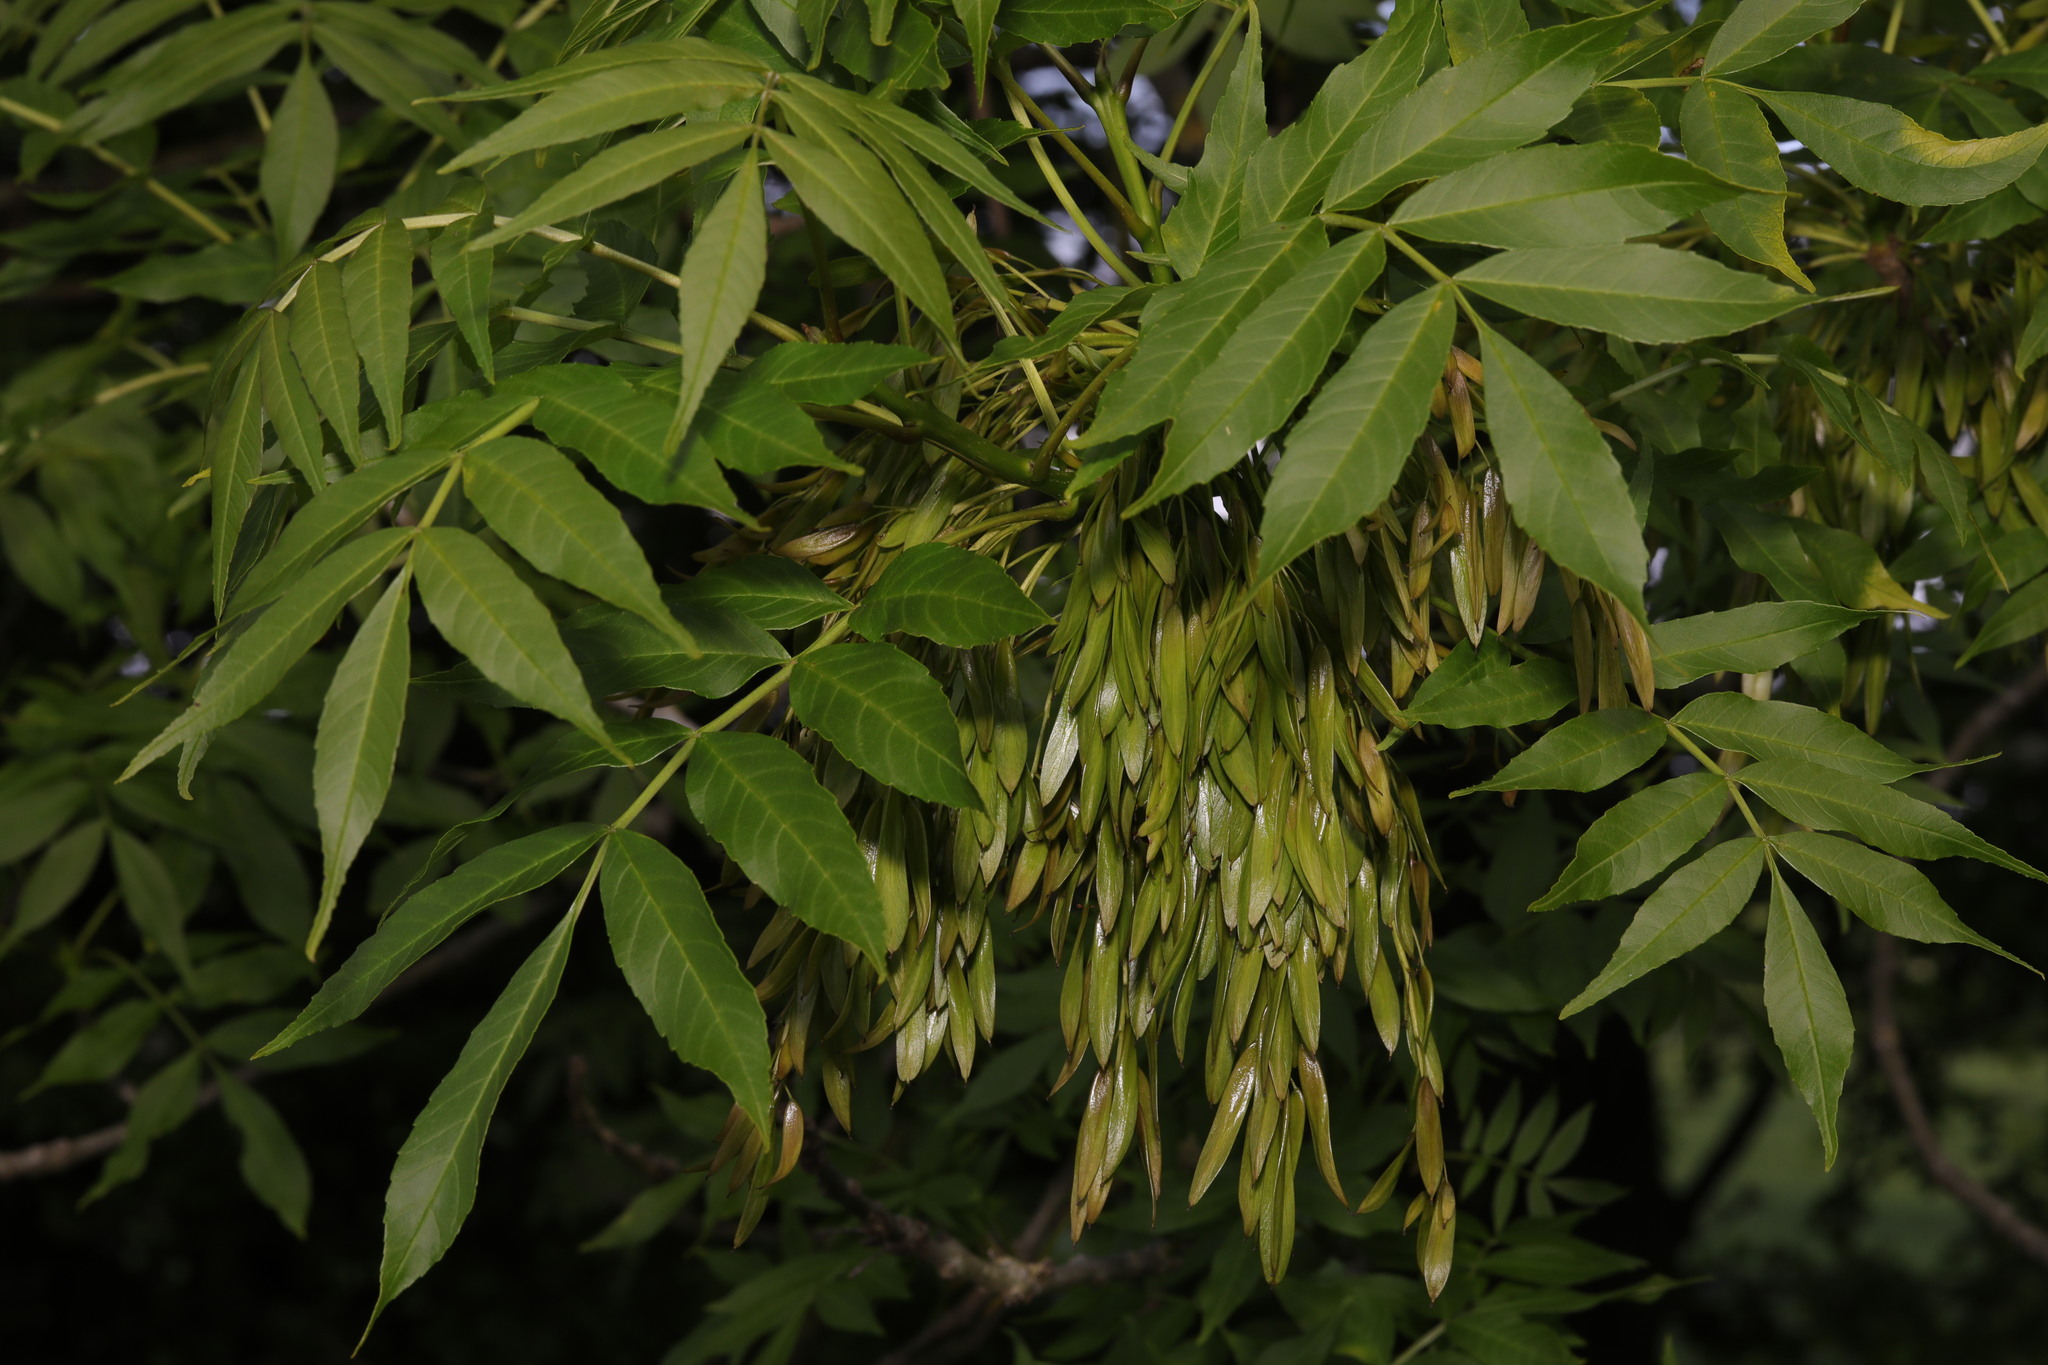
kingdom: Plantae
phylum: Tracheophyta
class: Magnoliopsida
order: Lamiales
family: Oleaceae
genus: Fraxinus
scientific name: Fraxinus excelsior
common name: European ash
